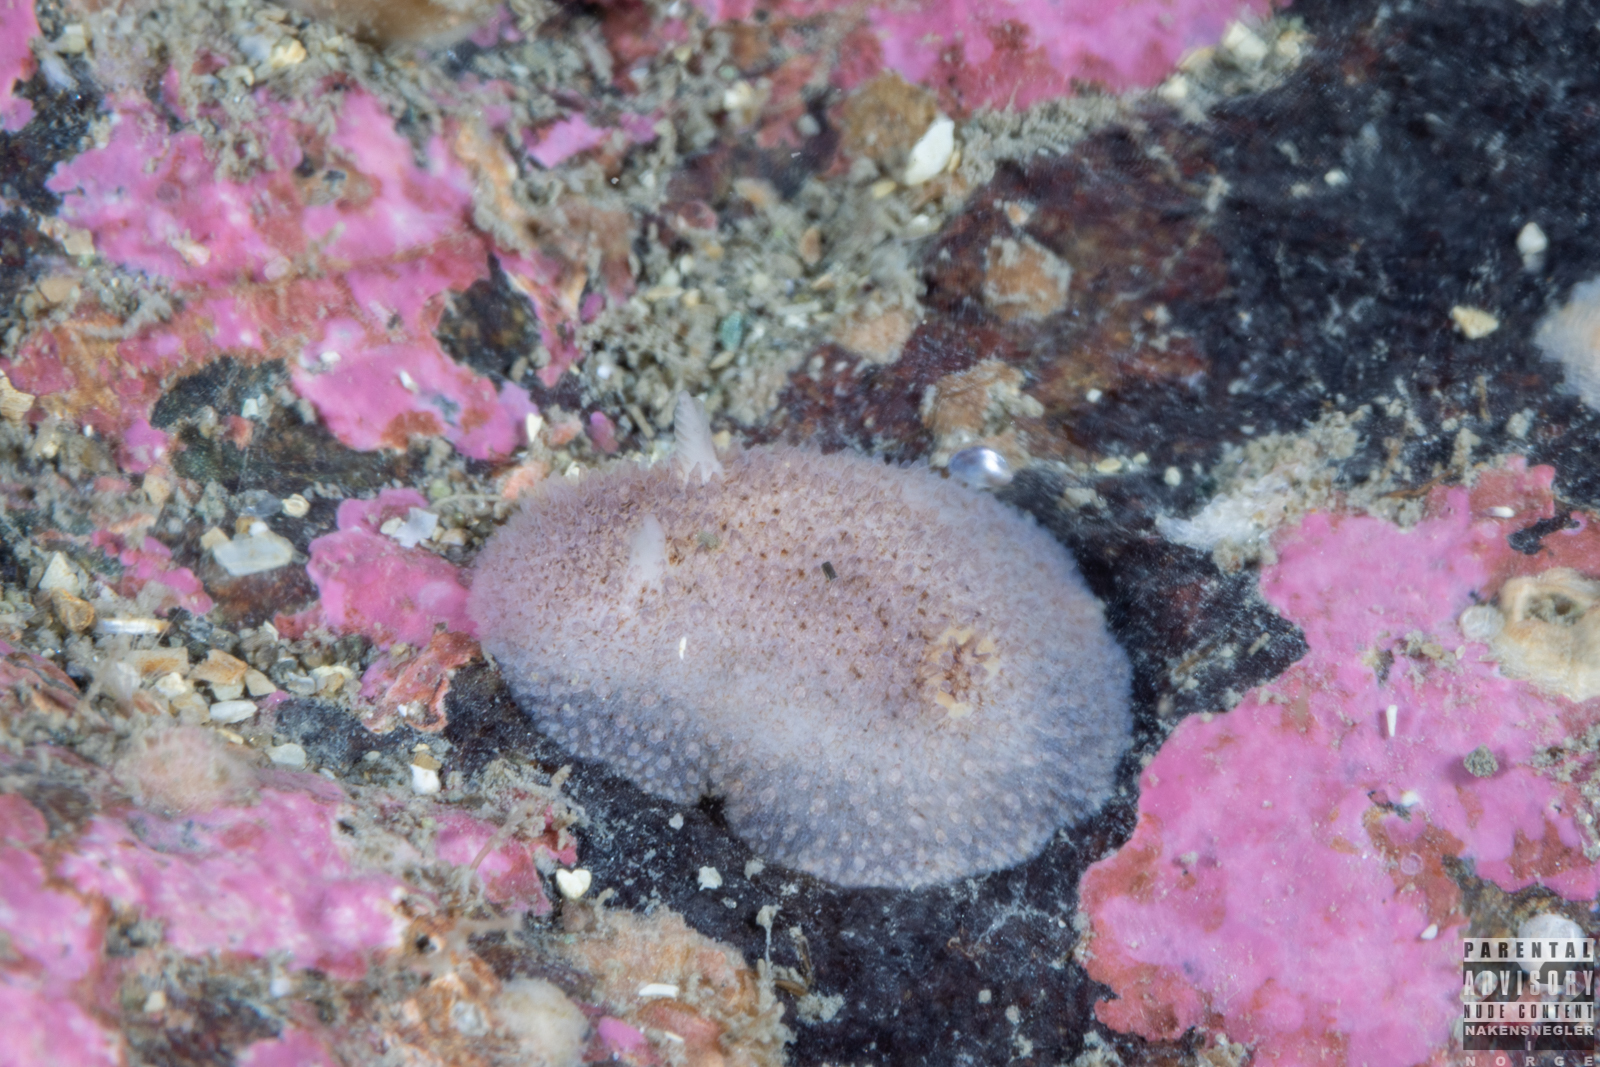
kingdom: Animalia
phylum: Mollusca
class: Gastropoda
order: Nudibranchia
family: Onchidorididae
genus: Atalodoris
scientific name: Atalodoris pusilla
